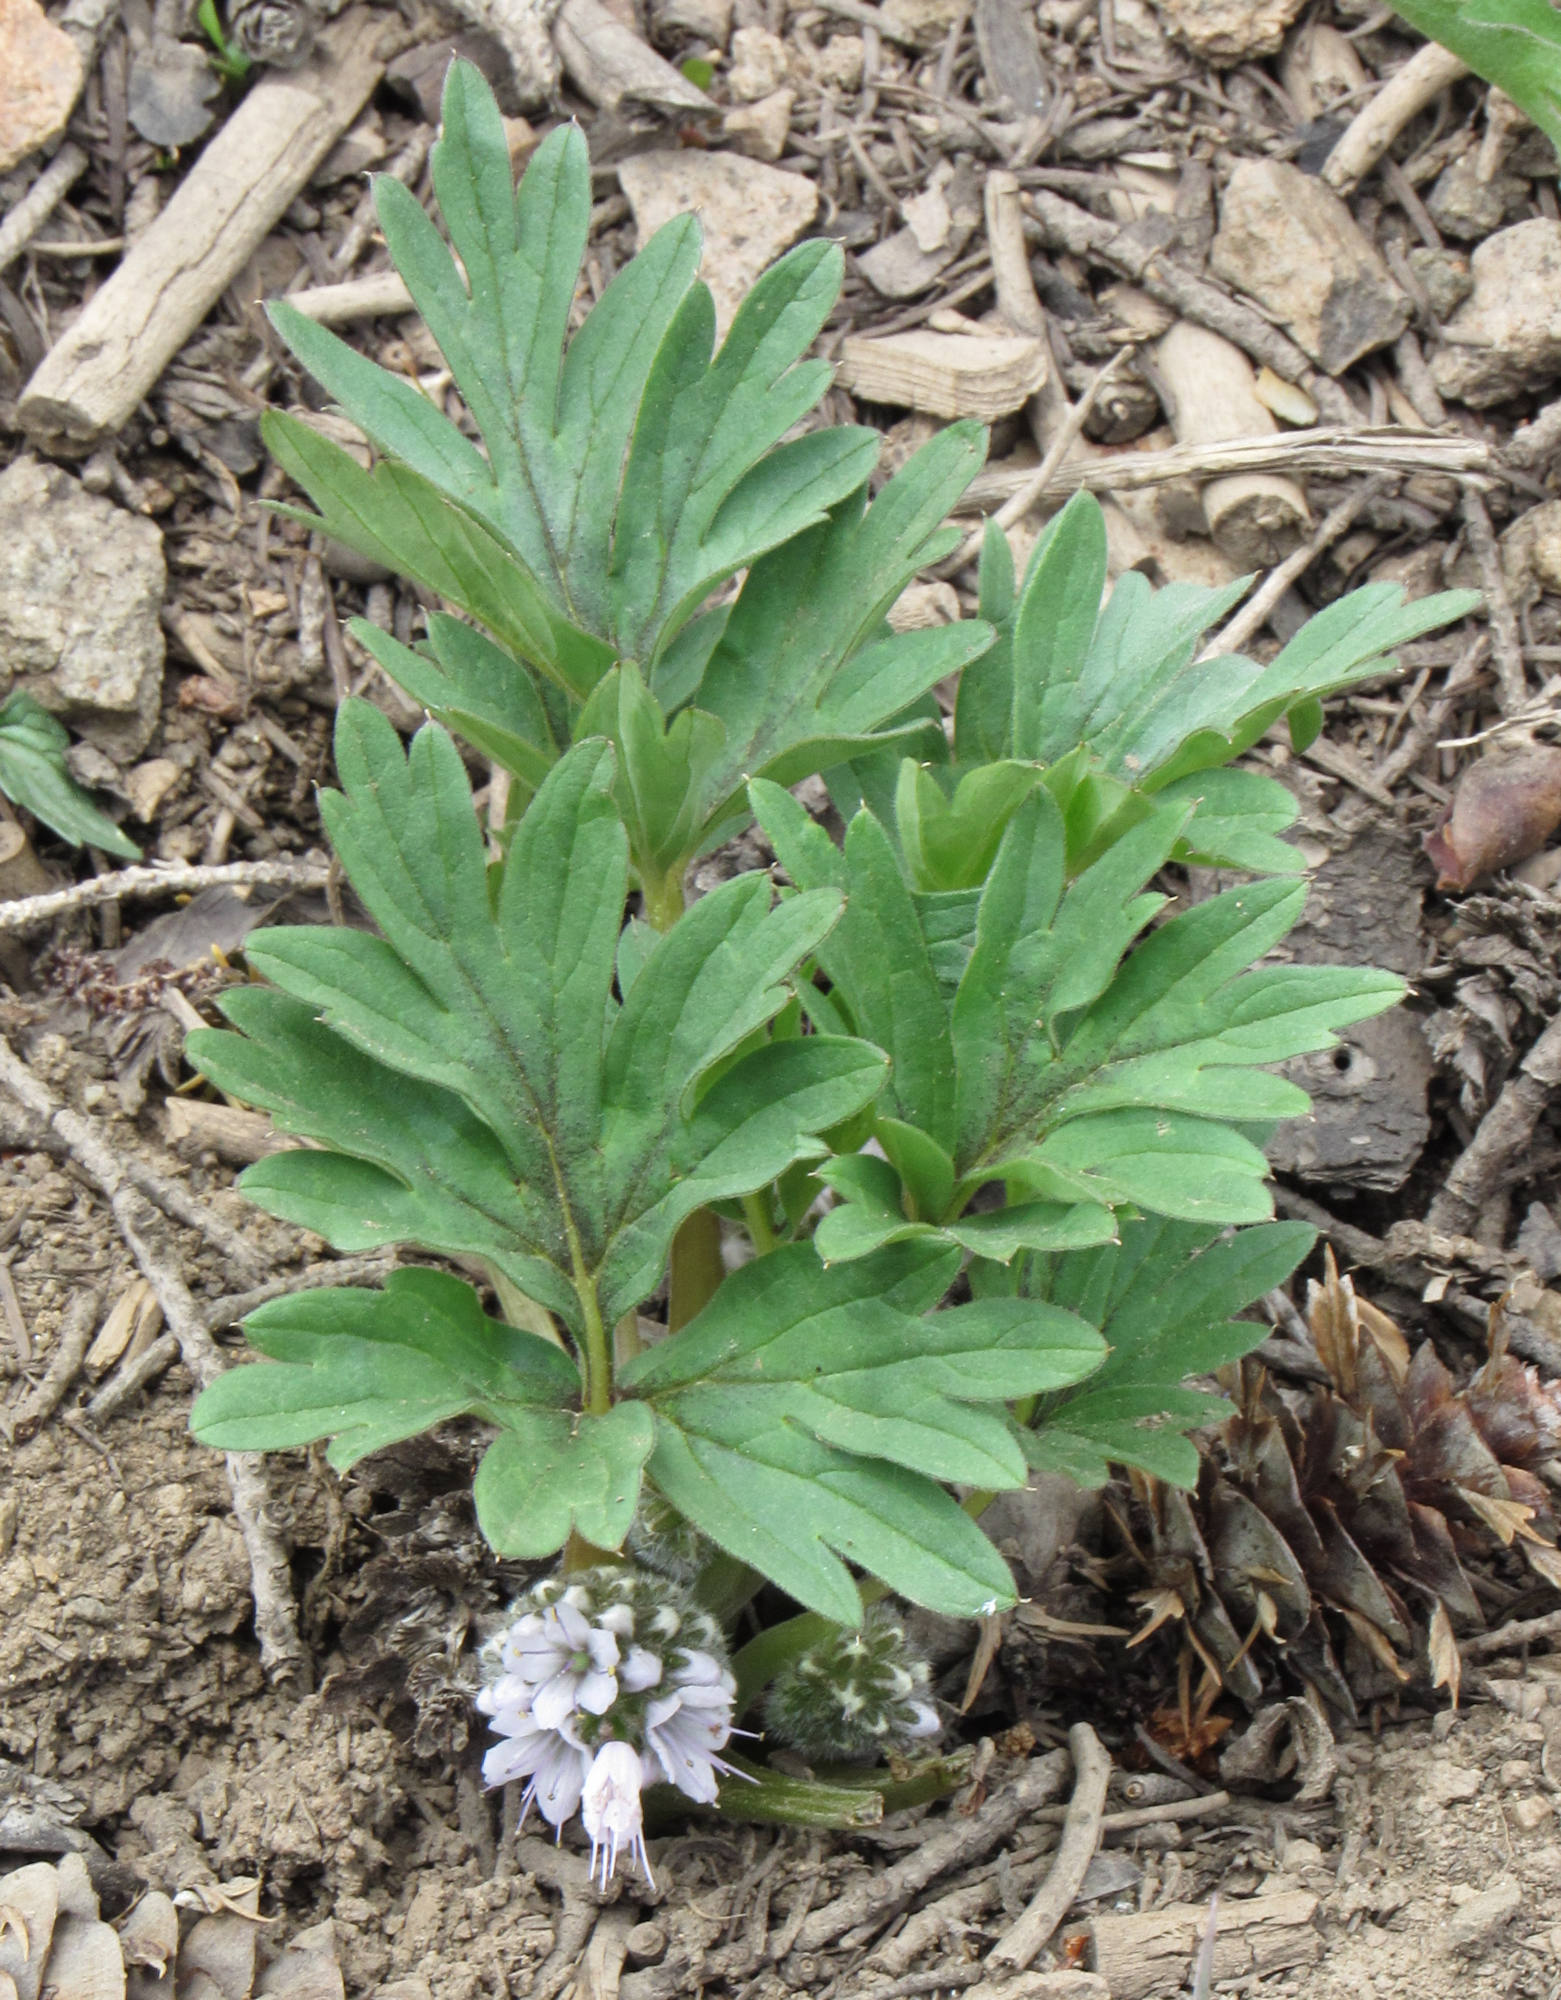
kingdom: Plantae
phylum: Tracheophyta
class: Magnoliopsida
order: Boraginales
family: Hydrophyllaceae
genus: Hydrophyllum
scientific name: Hydrophyllum alpestre
